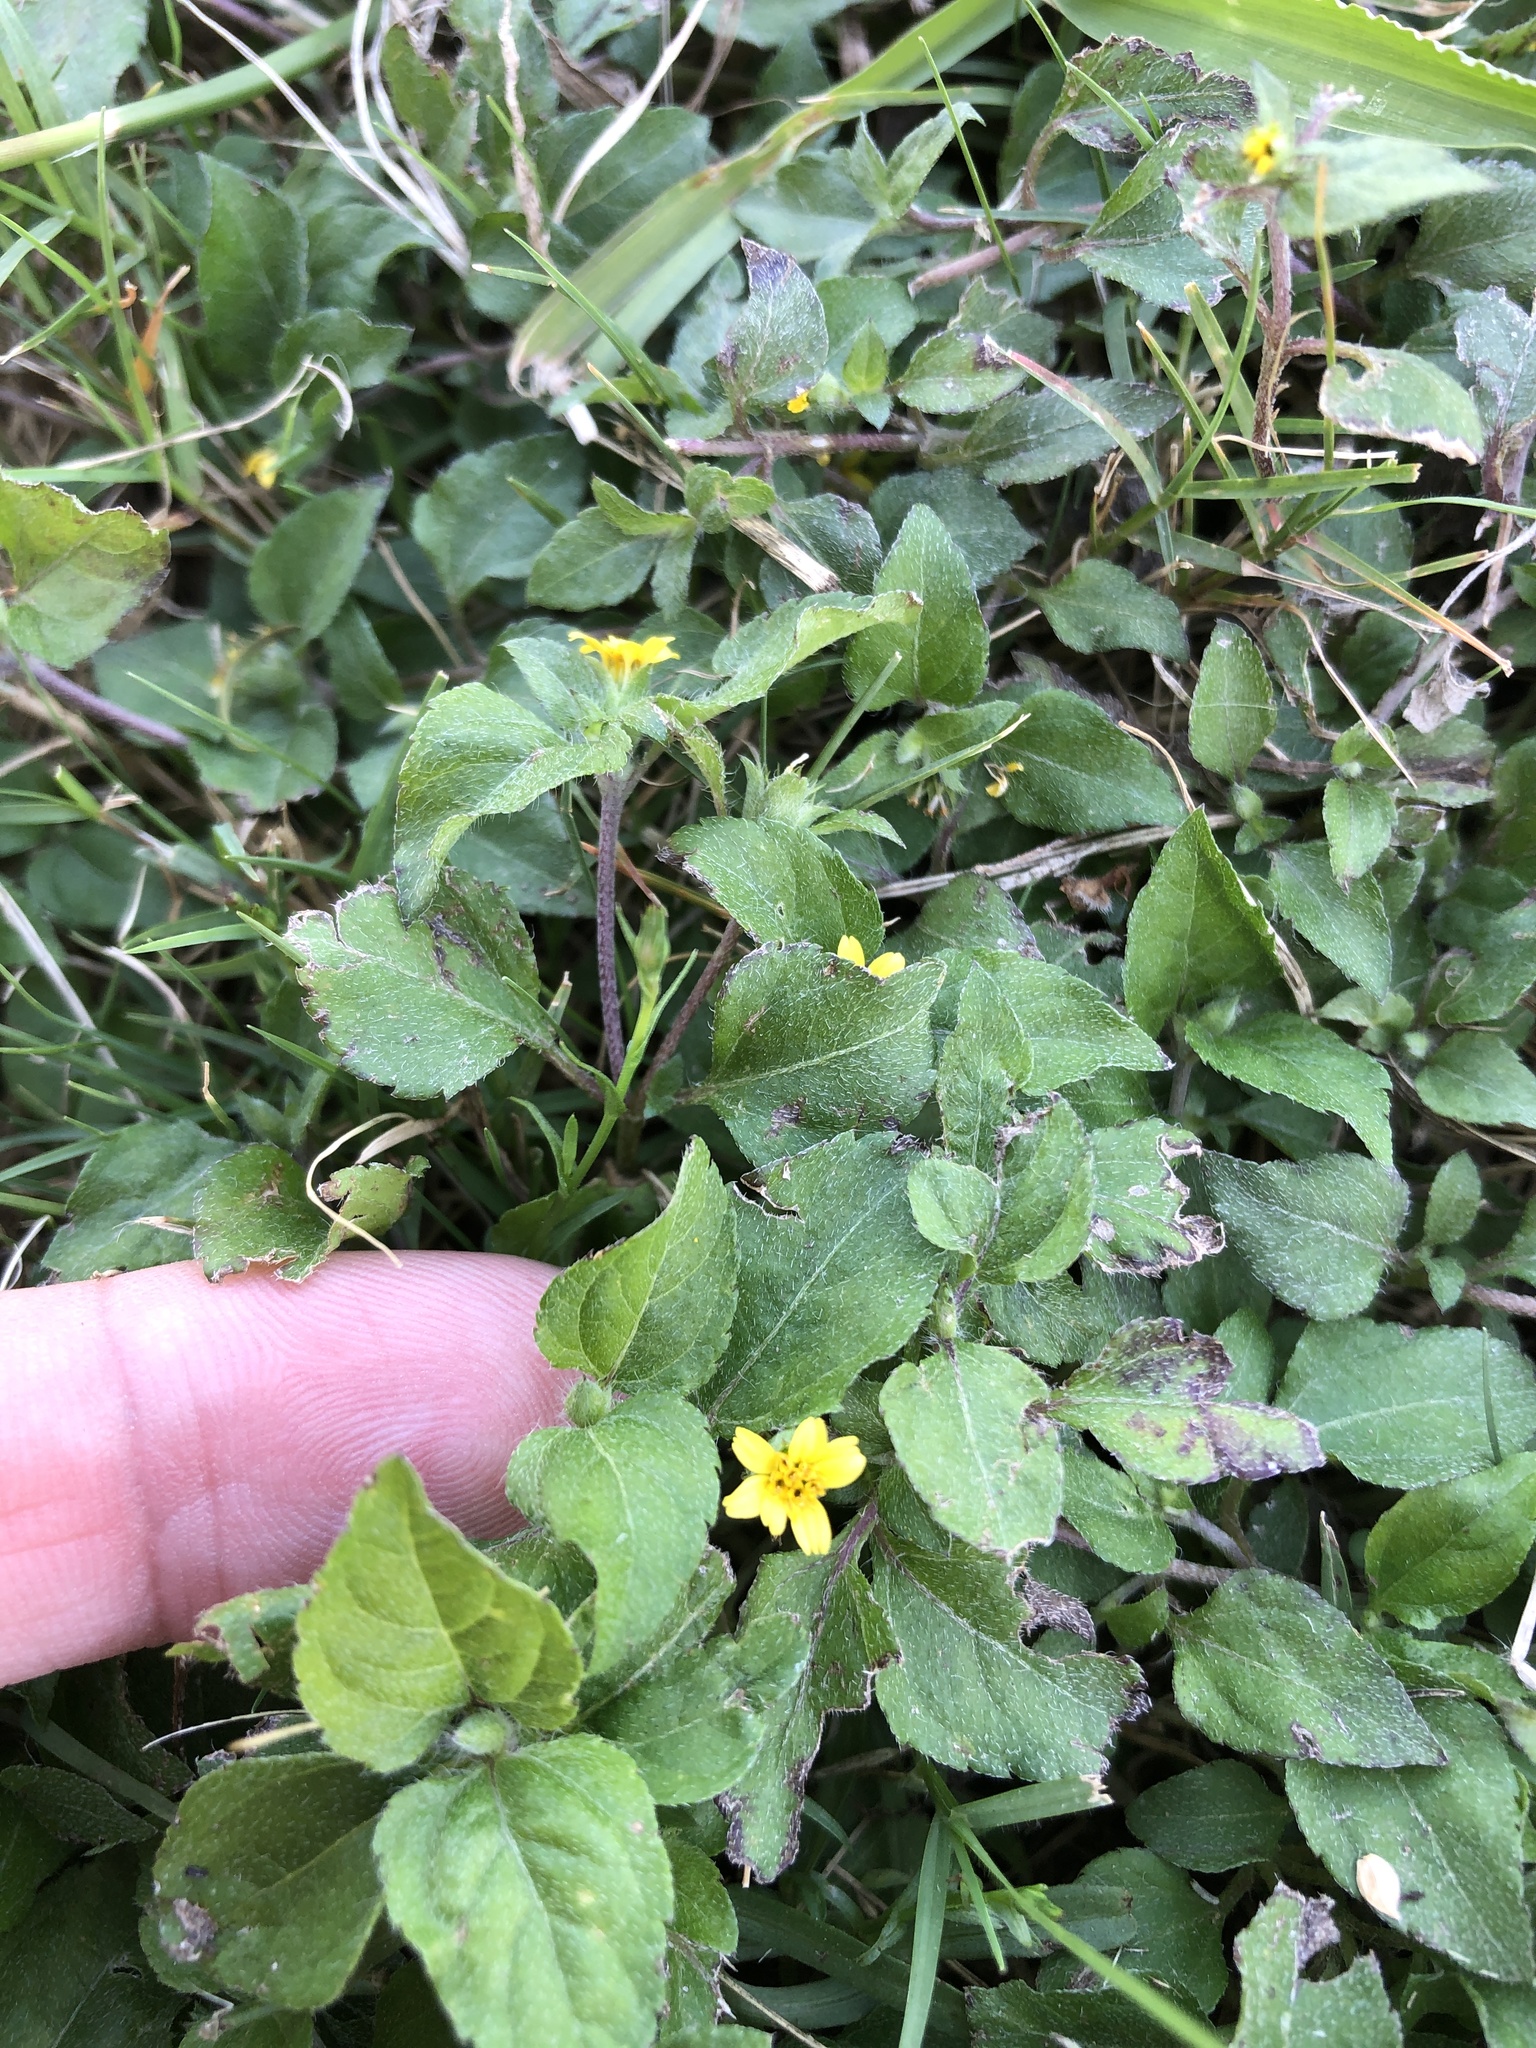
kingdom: Plantae
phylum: Tracheophyta
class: Magnoliopsida
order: Asterales
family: Asteraceae
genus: Calyptocarpus
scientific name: Calyptocarpus vialis
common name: Straggler daisy
